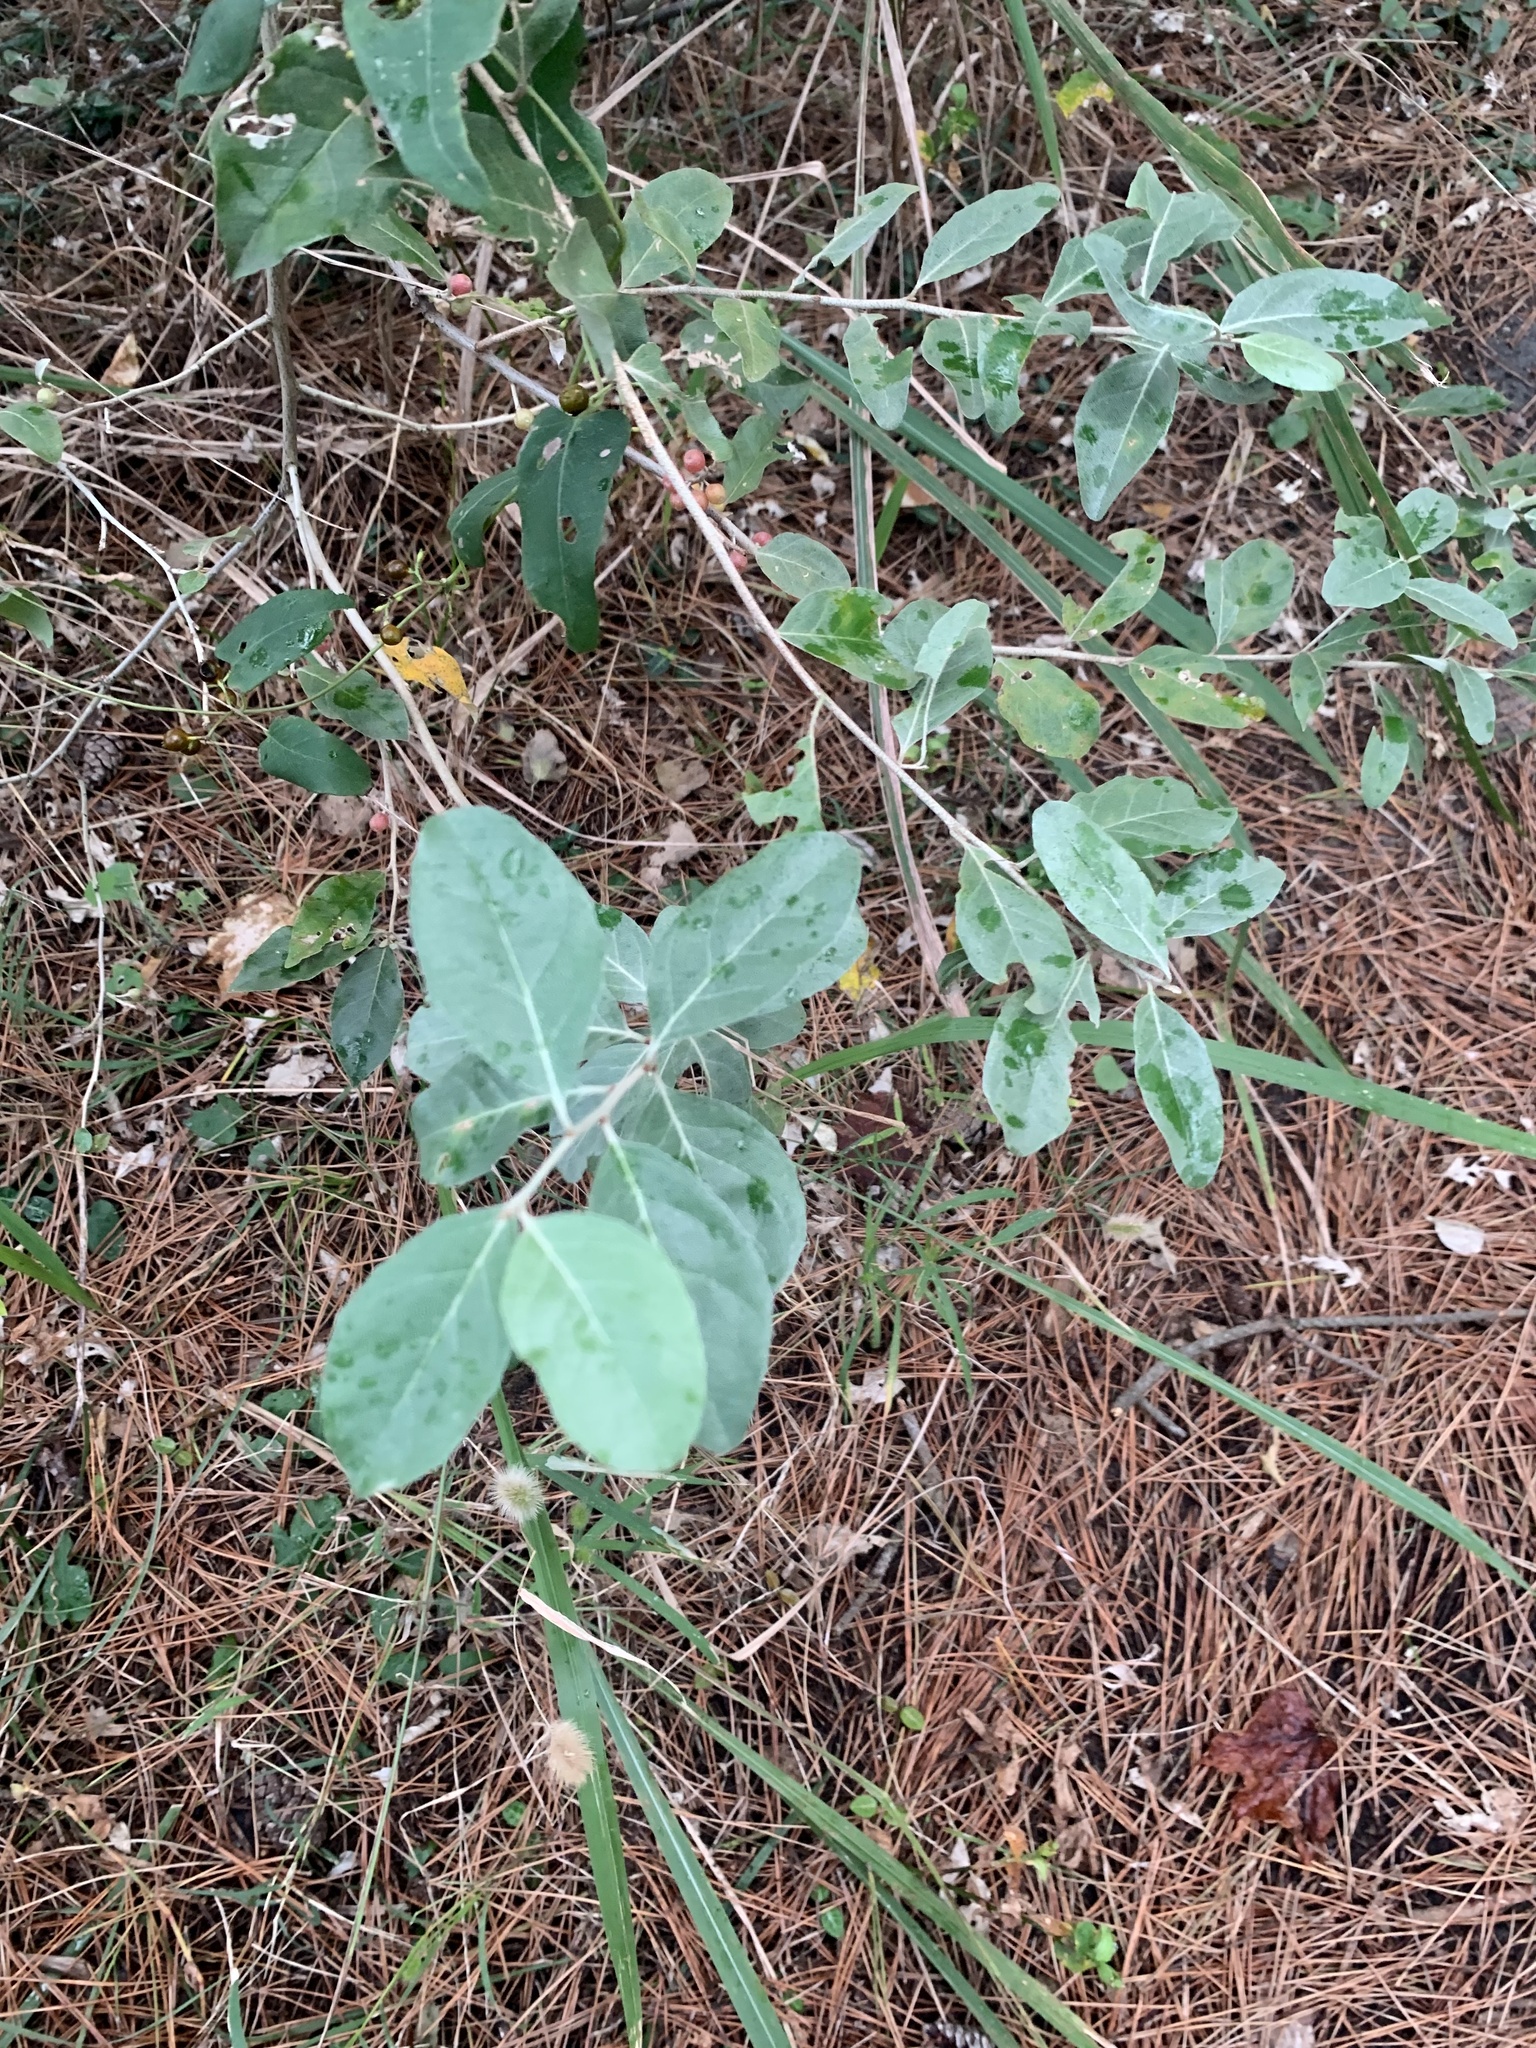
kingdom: Plantae
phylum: Tracheophyta
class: Magnoliopsida
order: Rosales
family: Elaeagnaceae
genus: Elaeagnus
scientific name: Elaeagnus umbellata
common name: Autumn olive
